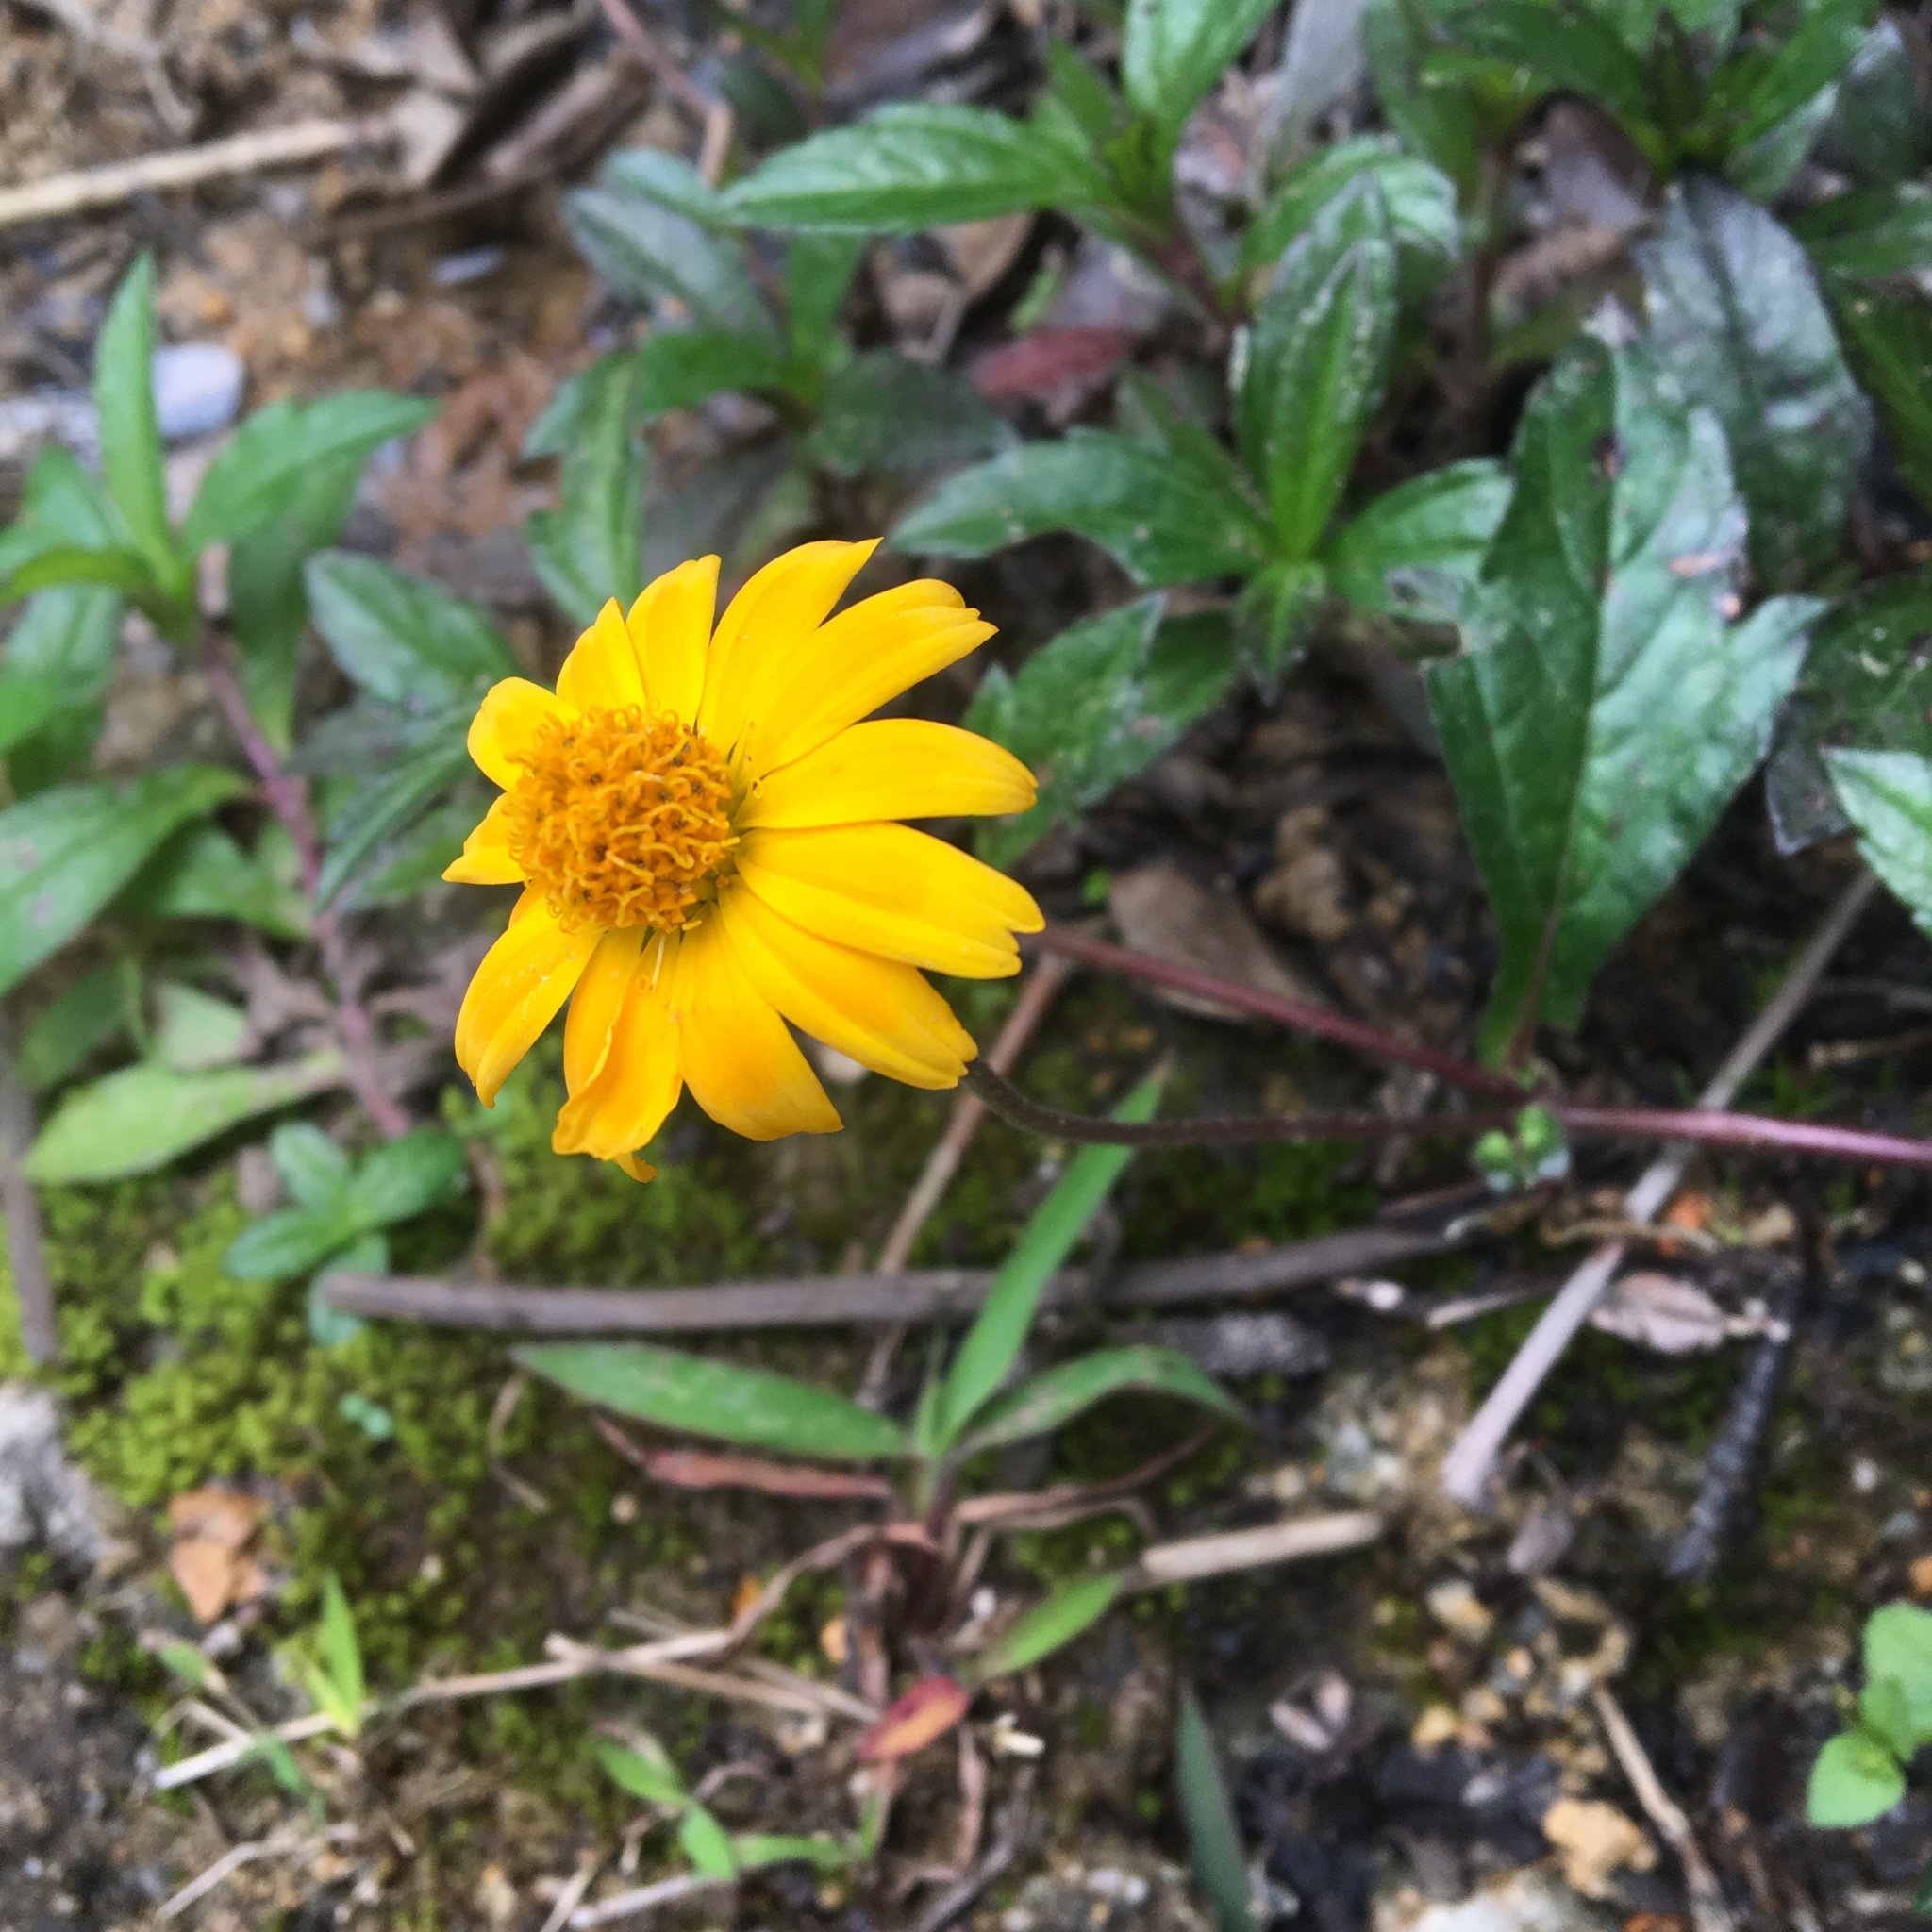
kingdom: Plantae
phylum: Tracheophyta
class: Magnoliopsida
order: Asterales
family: Asteraceae
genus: Sphagneticola
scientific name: Sphagneticola trilobata
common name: Bay biscayne creeping-oxeye
